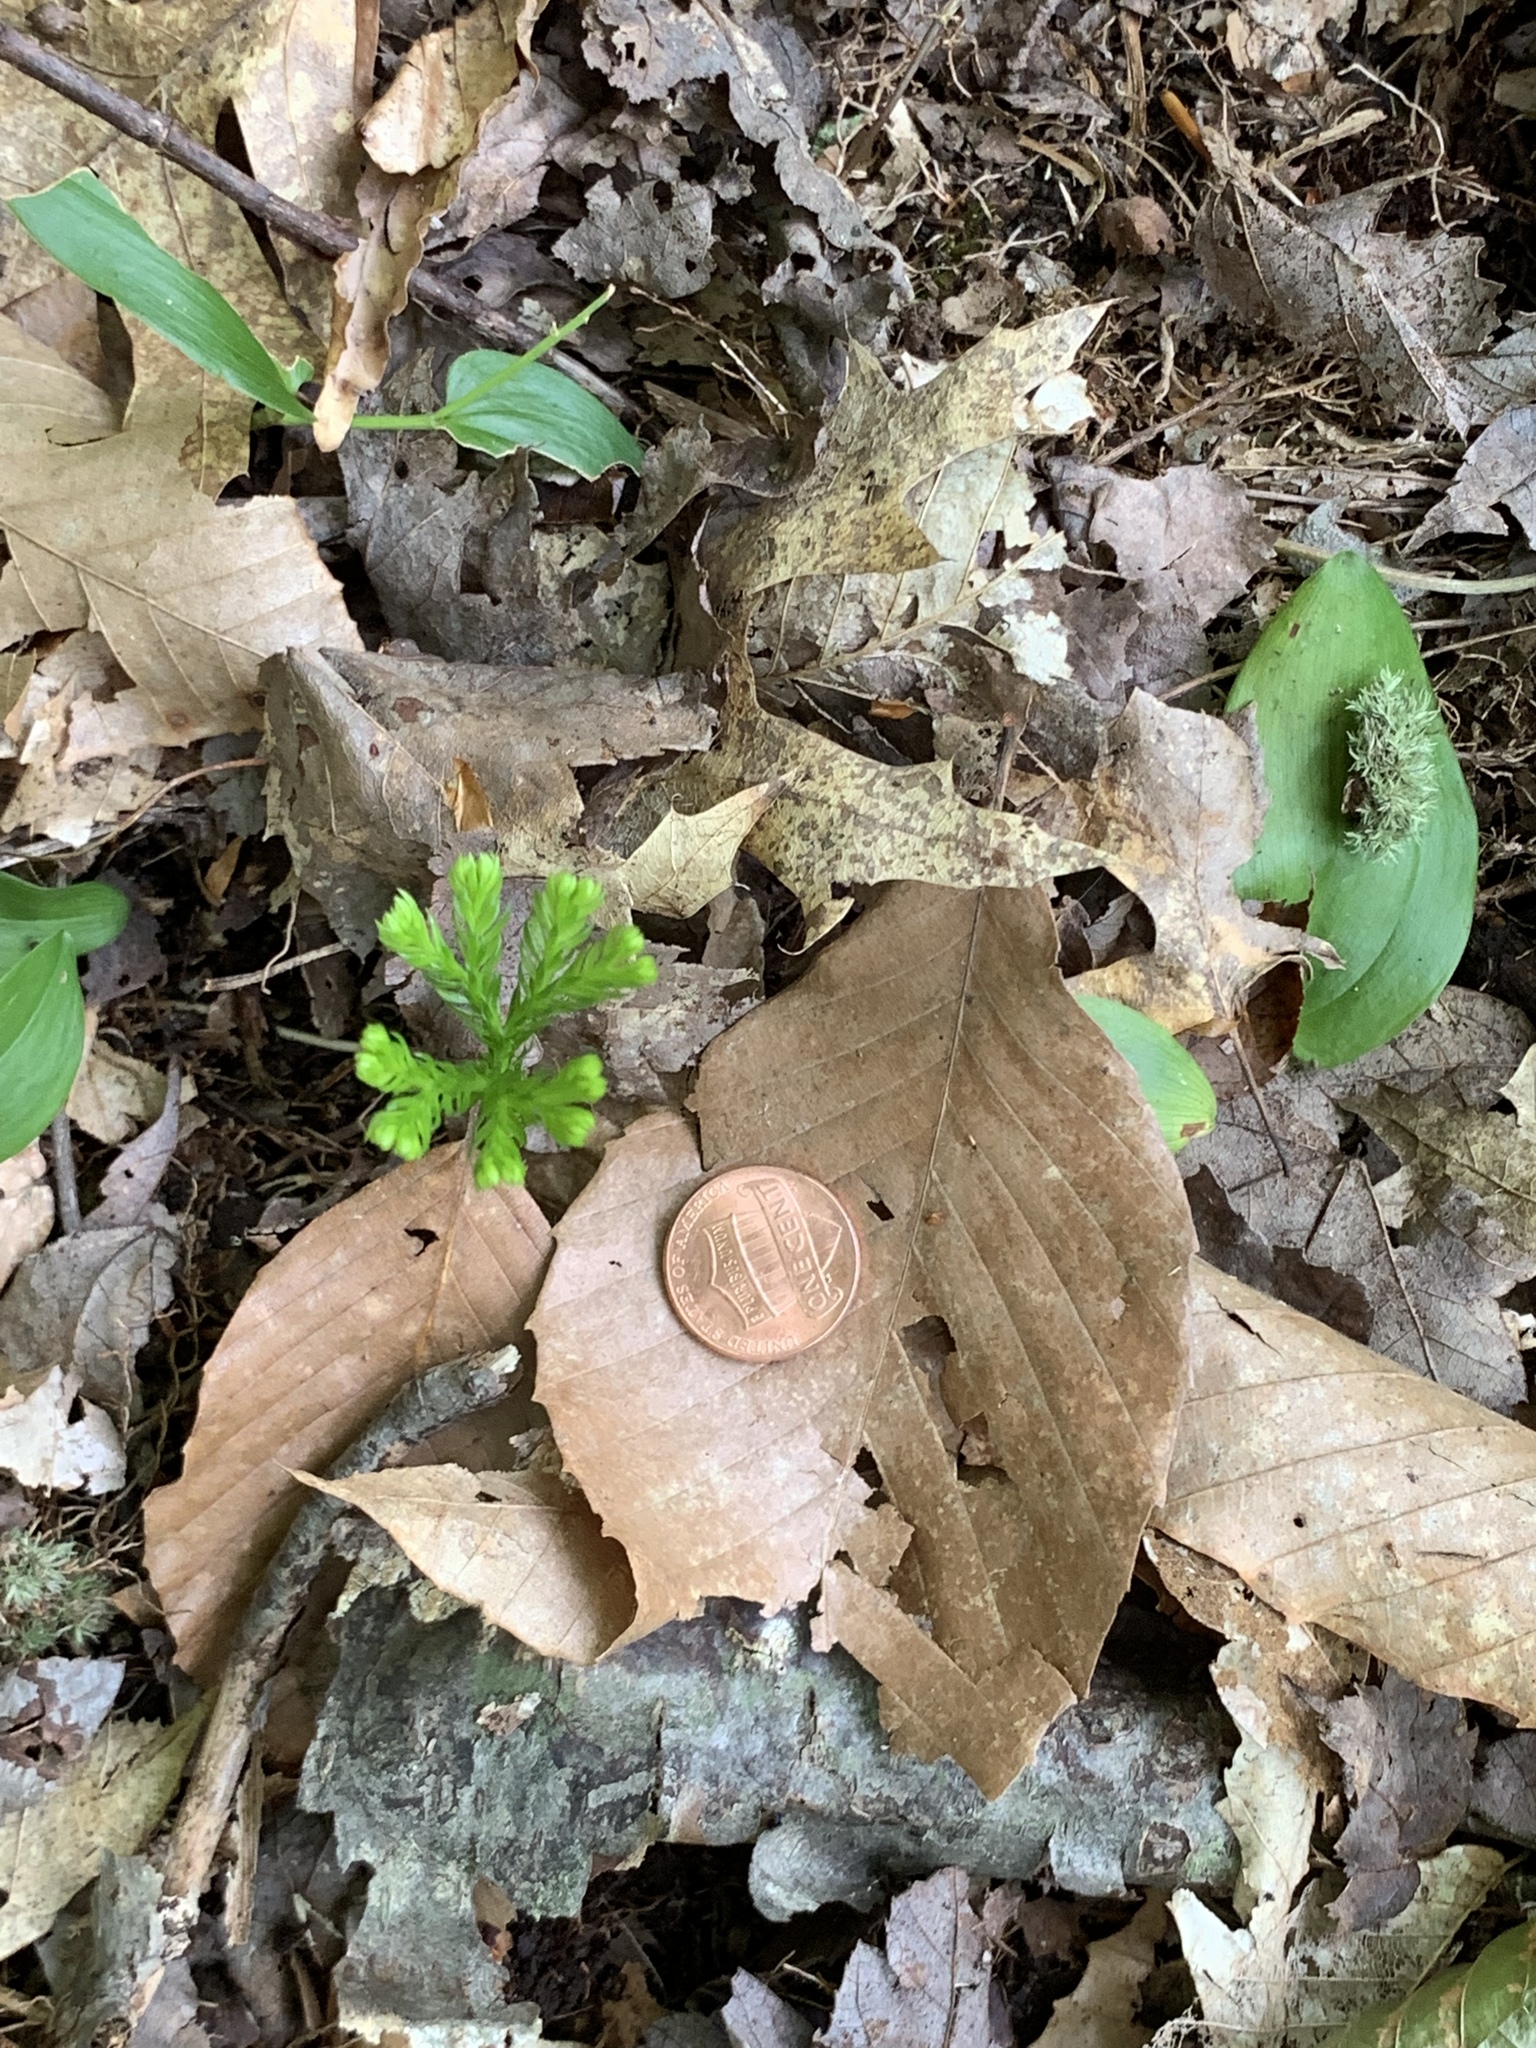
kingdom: Plantae
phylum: Tracheophyta
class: Lycopodiopsida
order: Lycopodiales
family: Lycopodiaceae
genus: Dendrolycopodium
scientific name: Dendrolycopodium obscurum
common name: Common ground-pine
